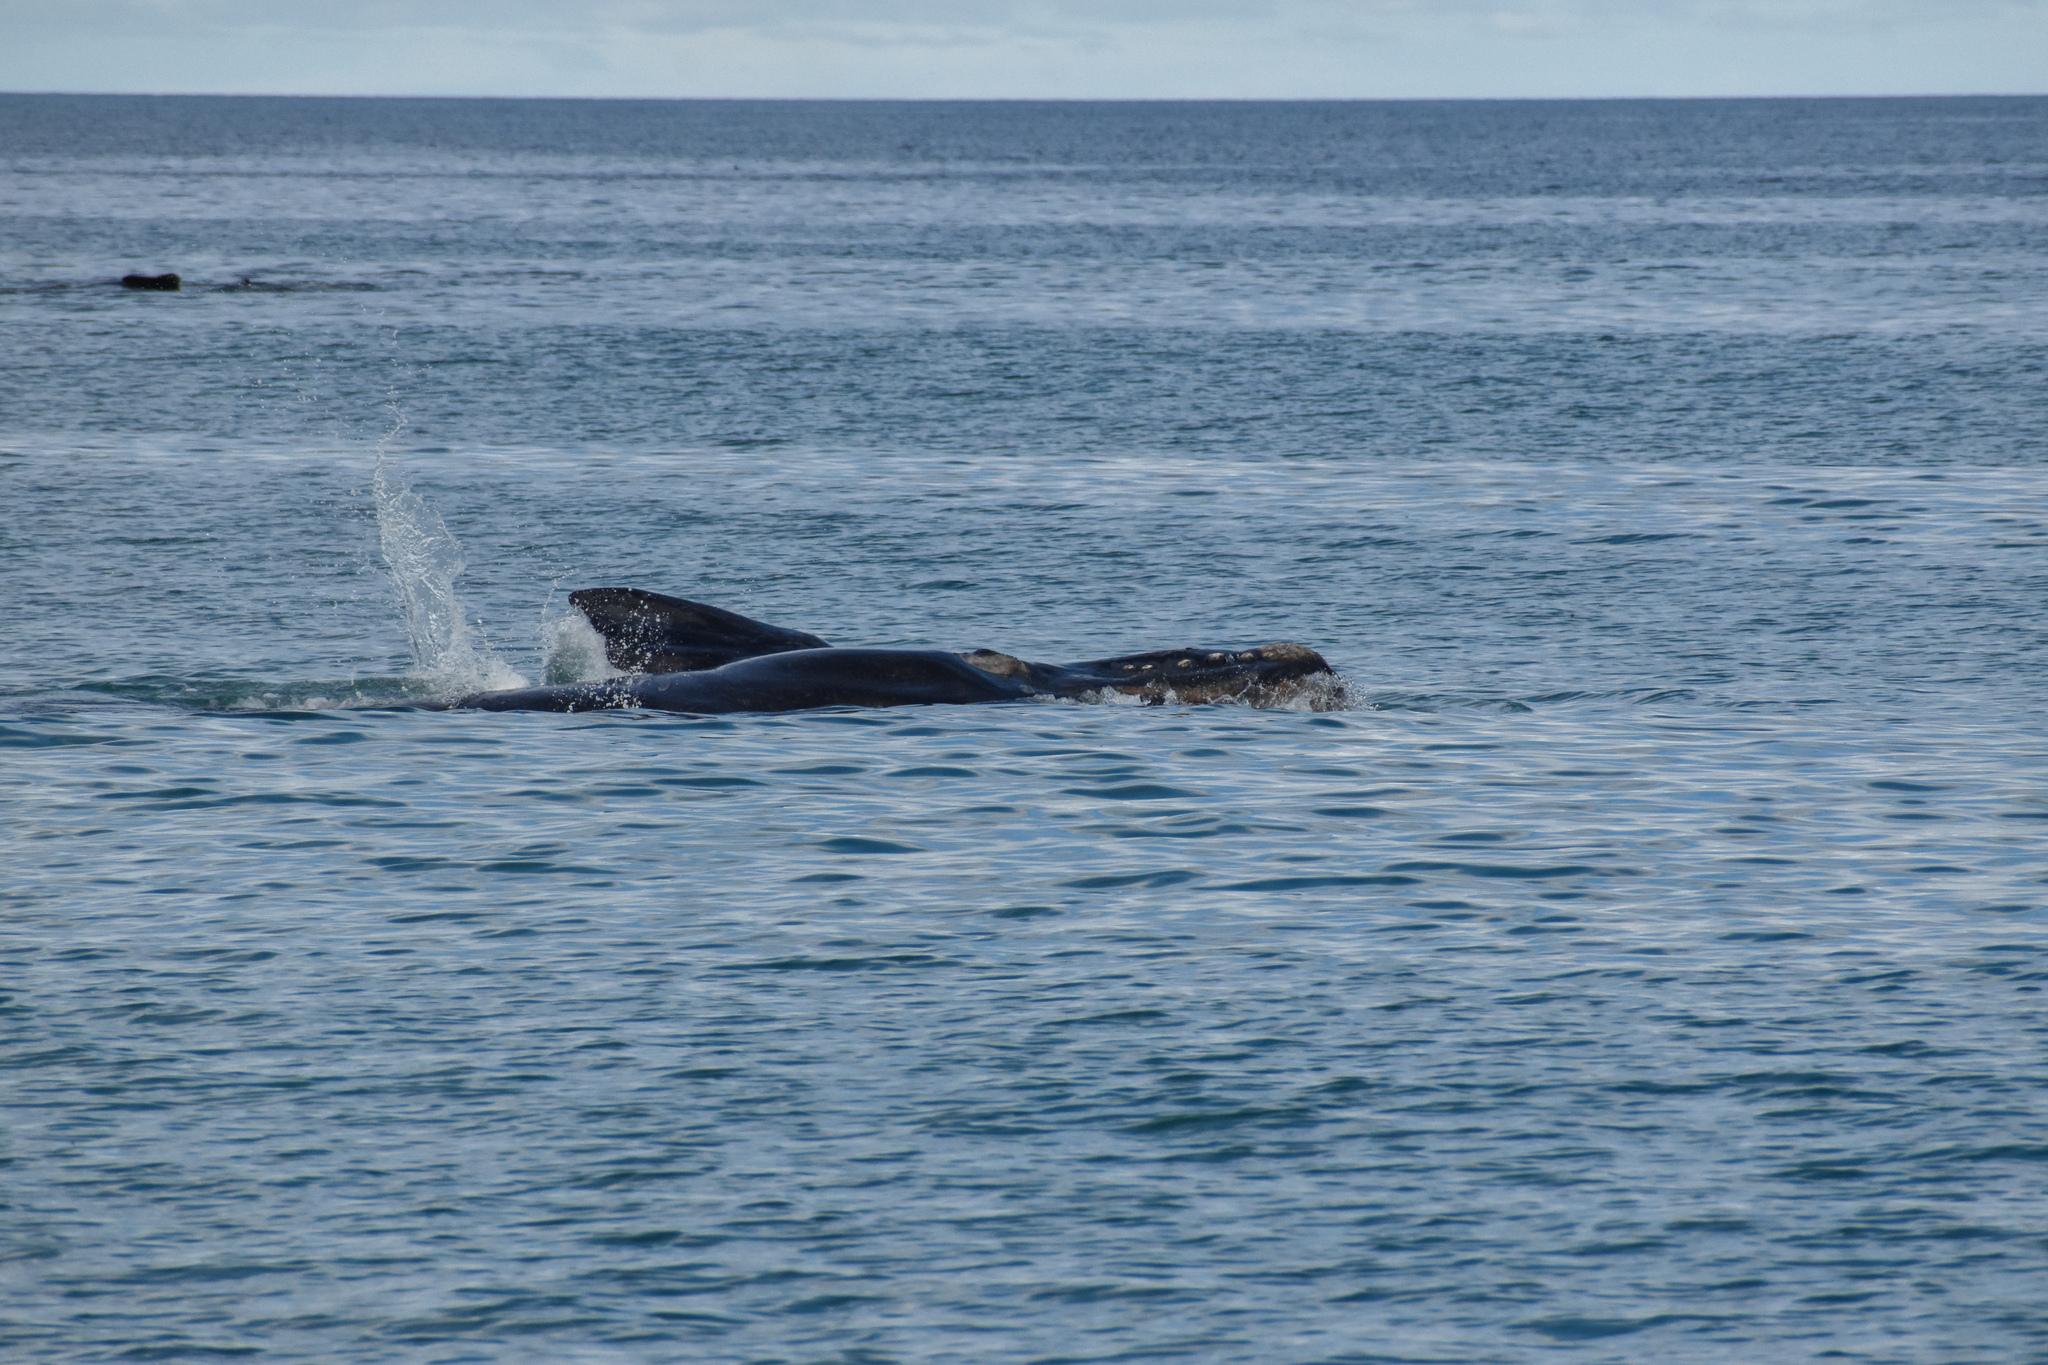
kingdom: Animalia
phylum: Chordata
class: Mammalia
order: Cetacea
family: Balaenidae
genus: Eubalaena
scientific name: Eubalaena australis
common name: Southern right whale
